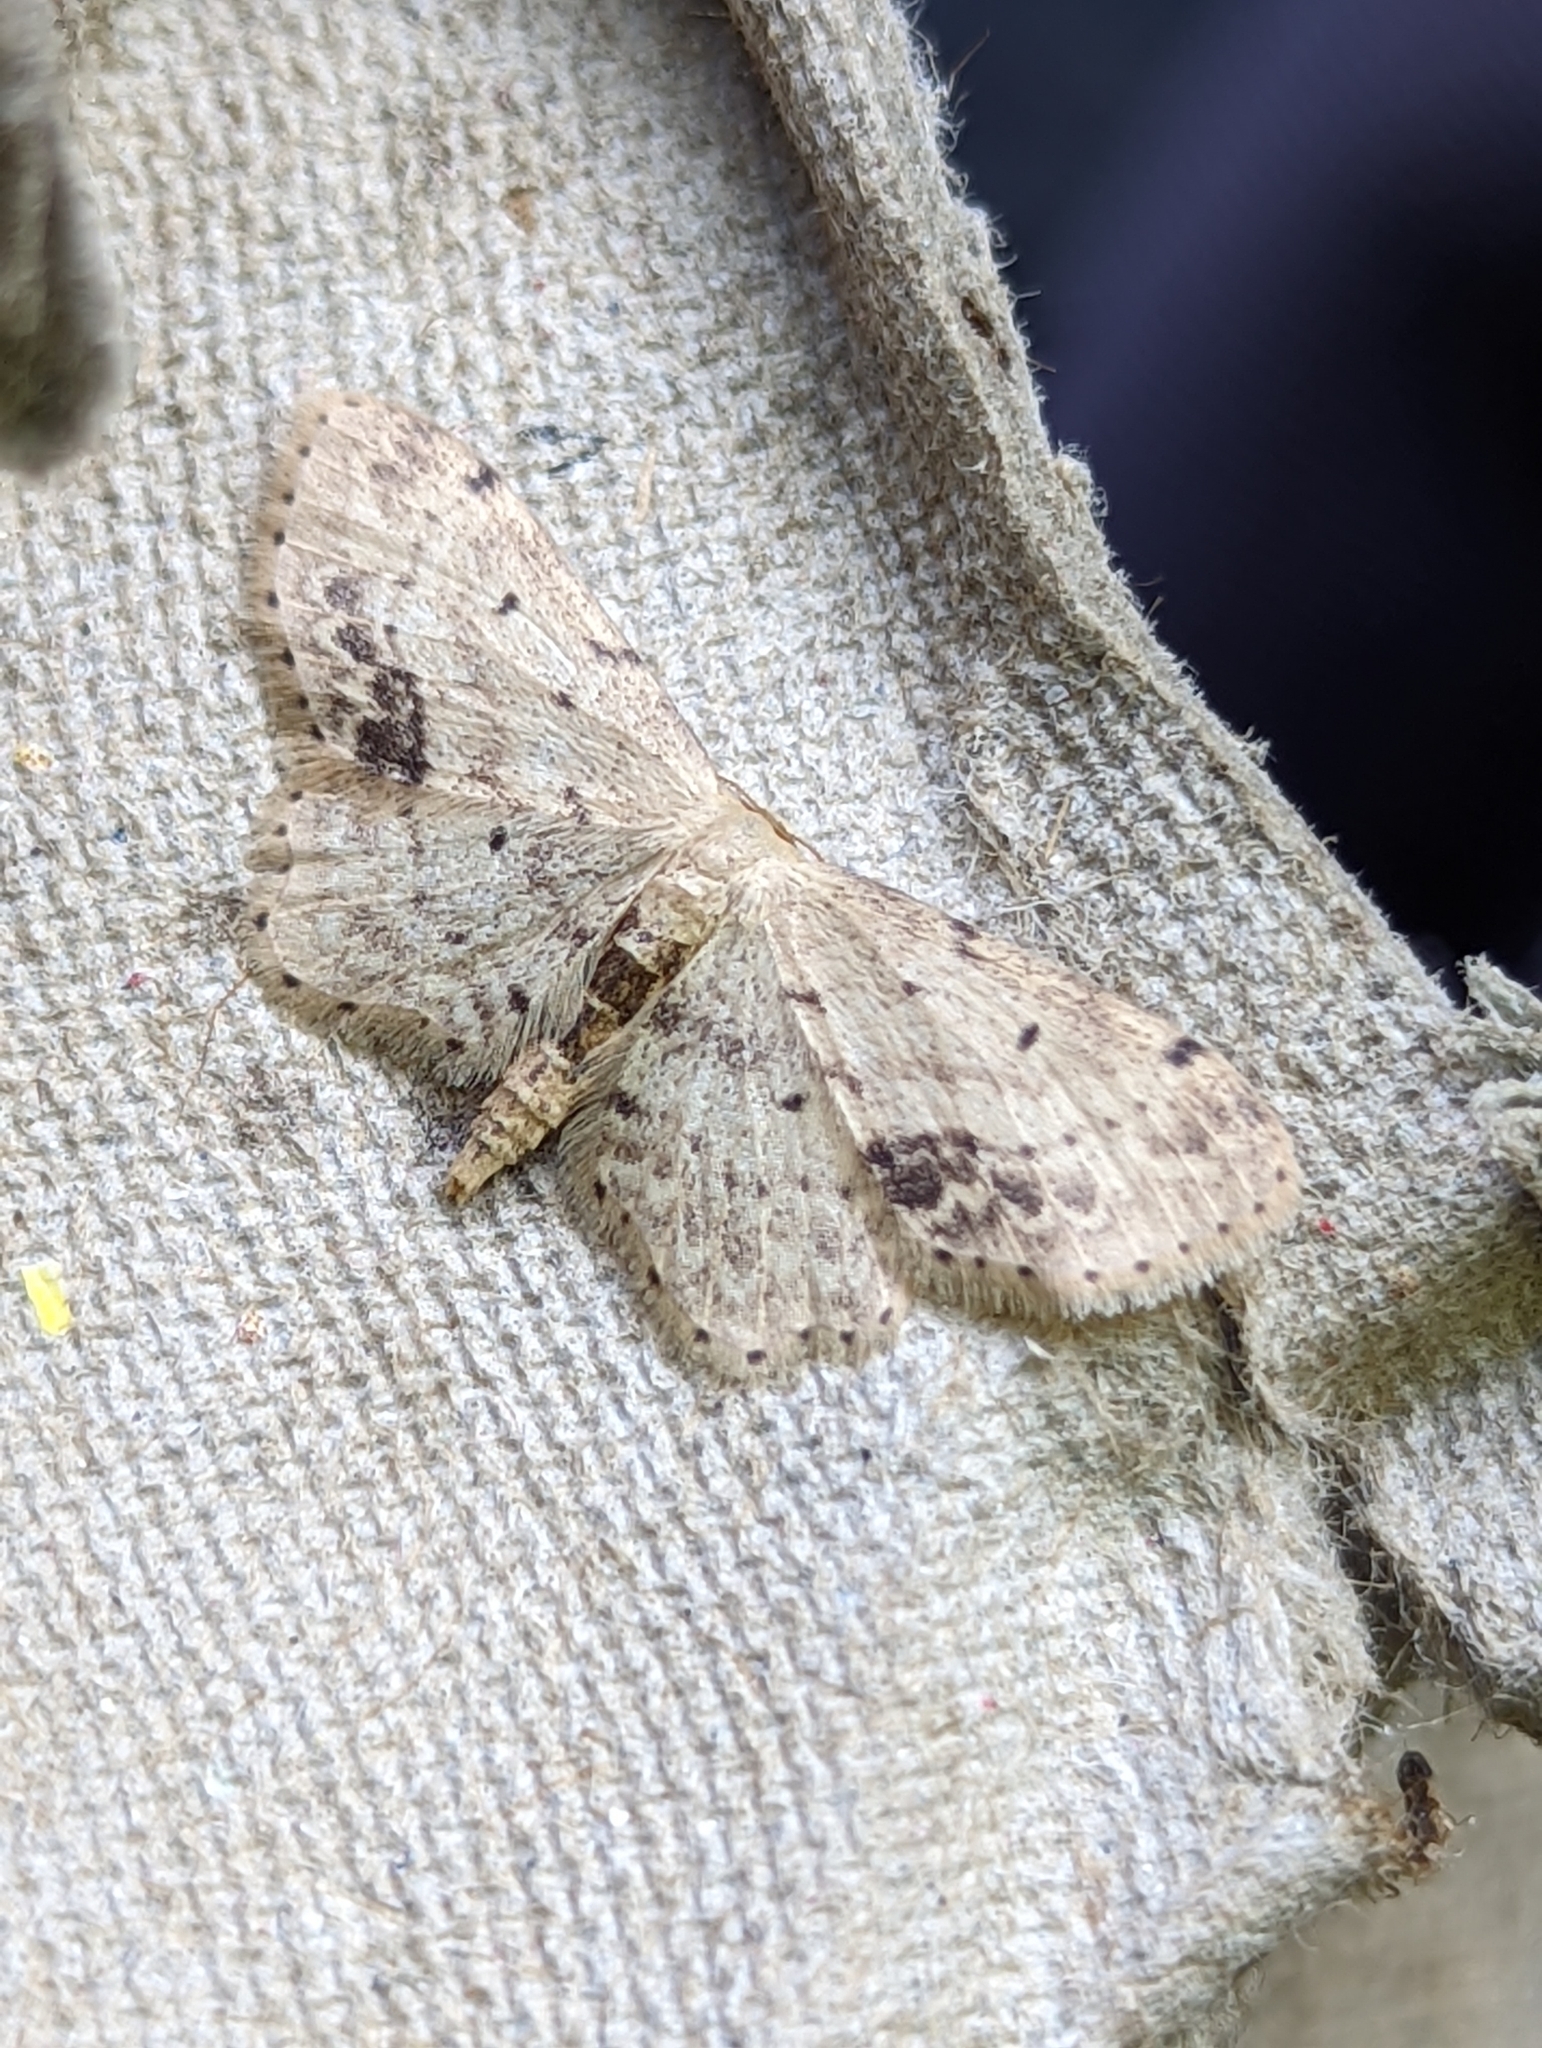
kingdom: Animalia
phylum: Arthropoda
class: Insecta
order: Lepidoptera
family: Geometridae
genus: Idaea
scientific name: Idaea dimidiata
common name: Single-dotted wave
